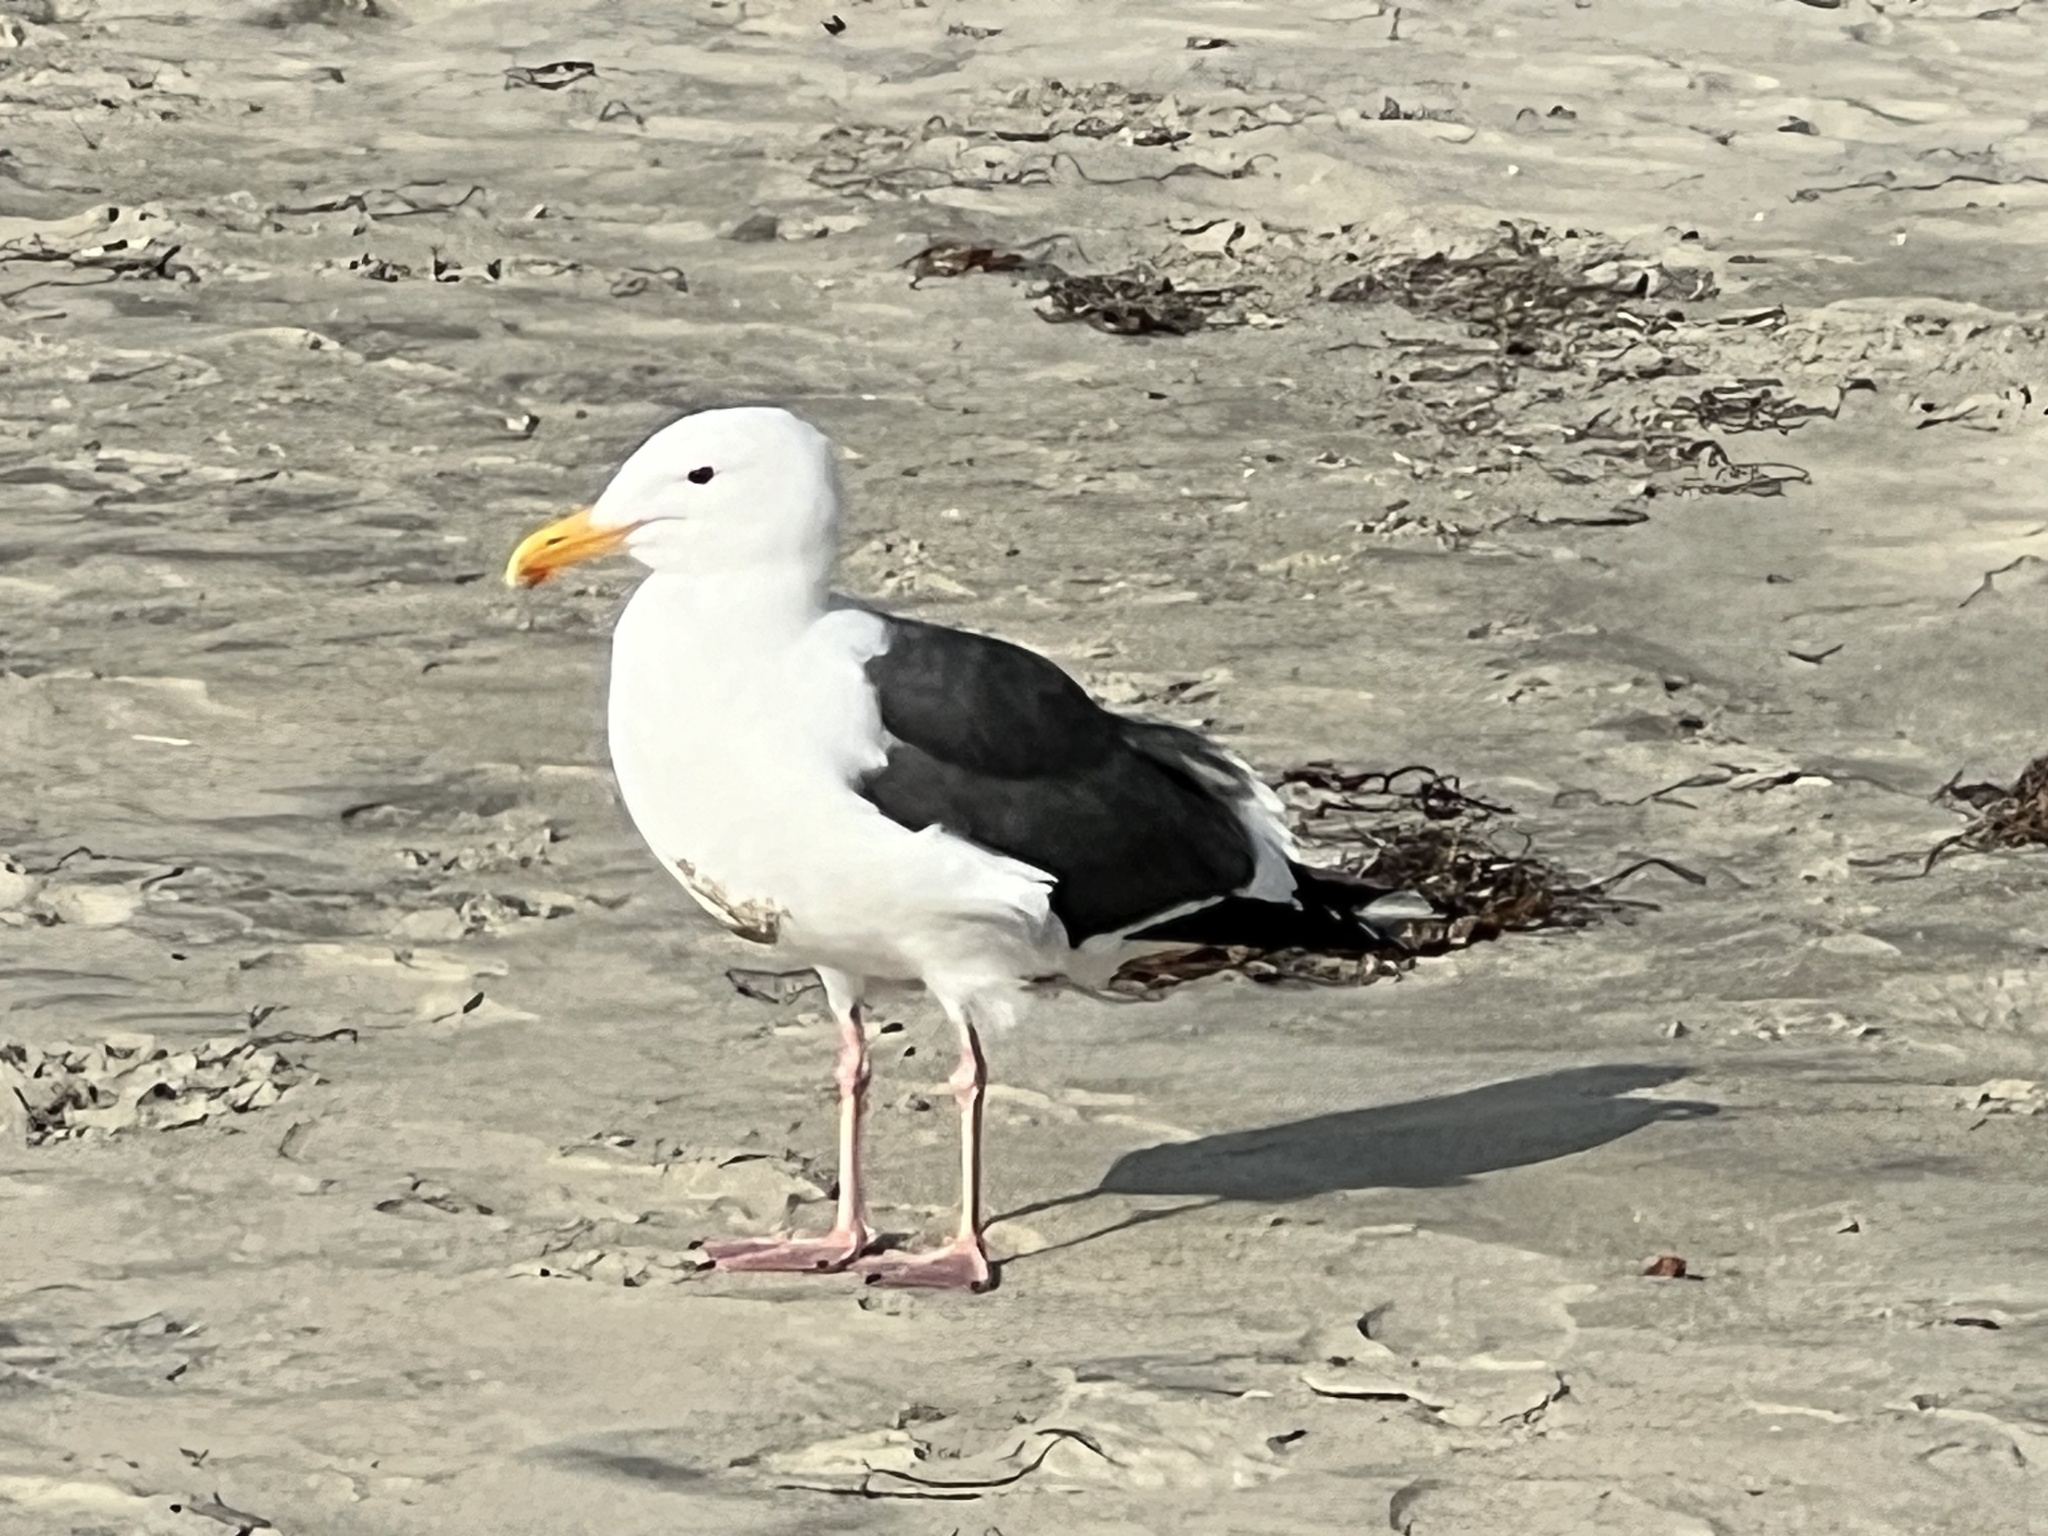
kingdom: Animalia
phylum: Chordata
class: Aves
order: Charadriiformes
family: Laridae
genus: Larus
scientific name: Larus occidentalis
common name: Western gull
